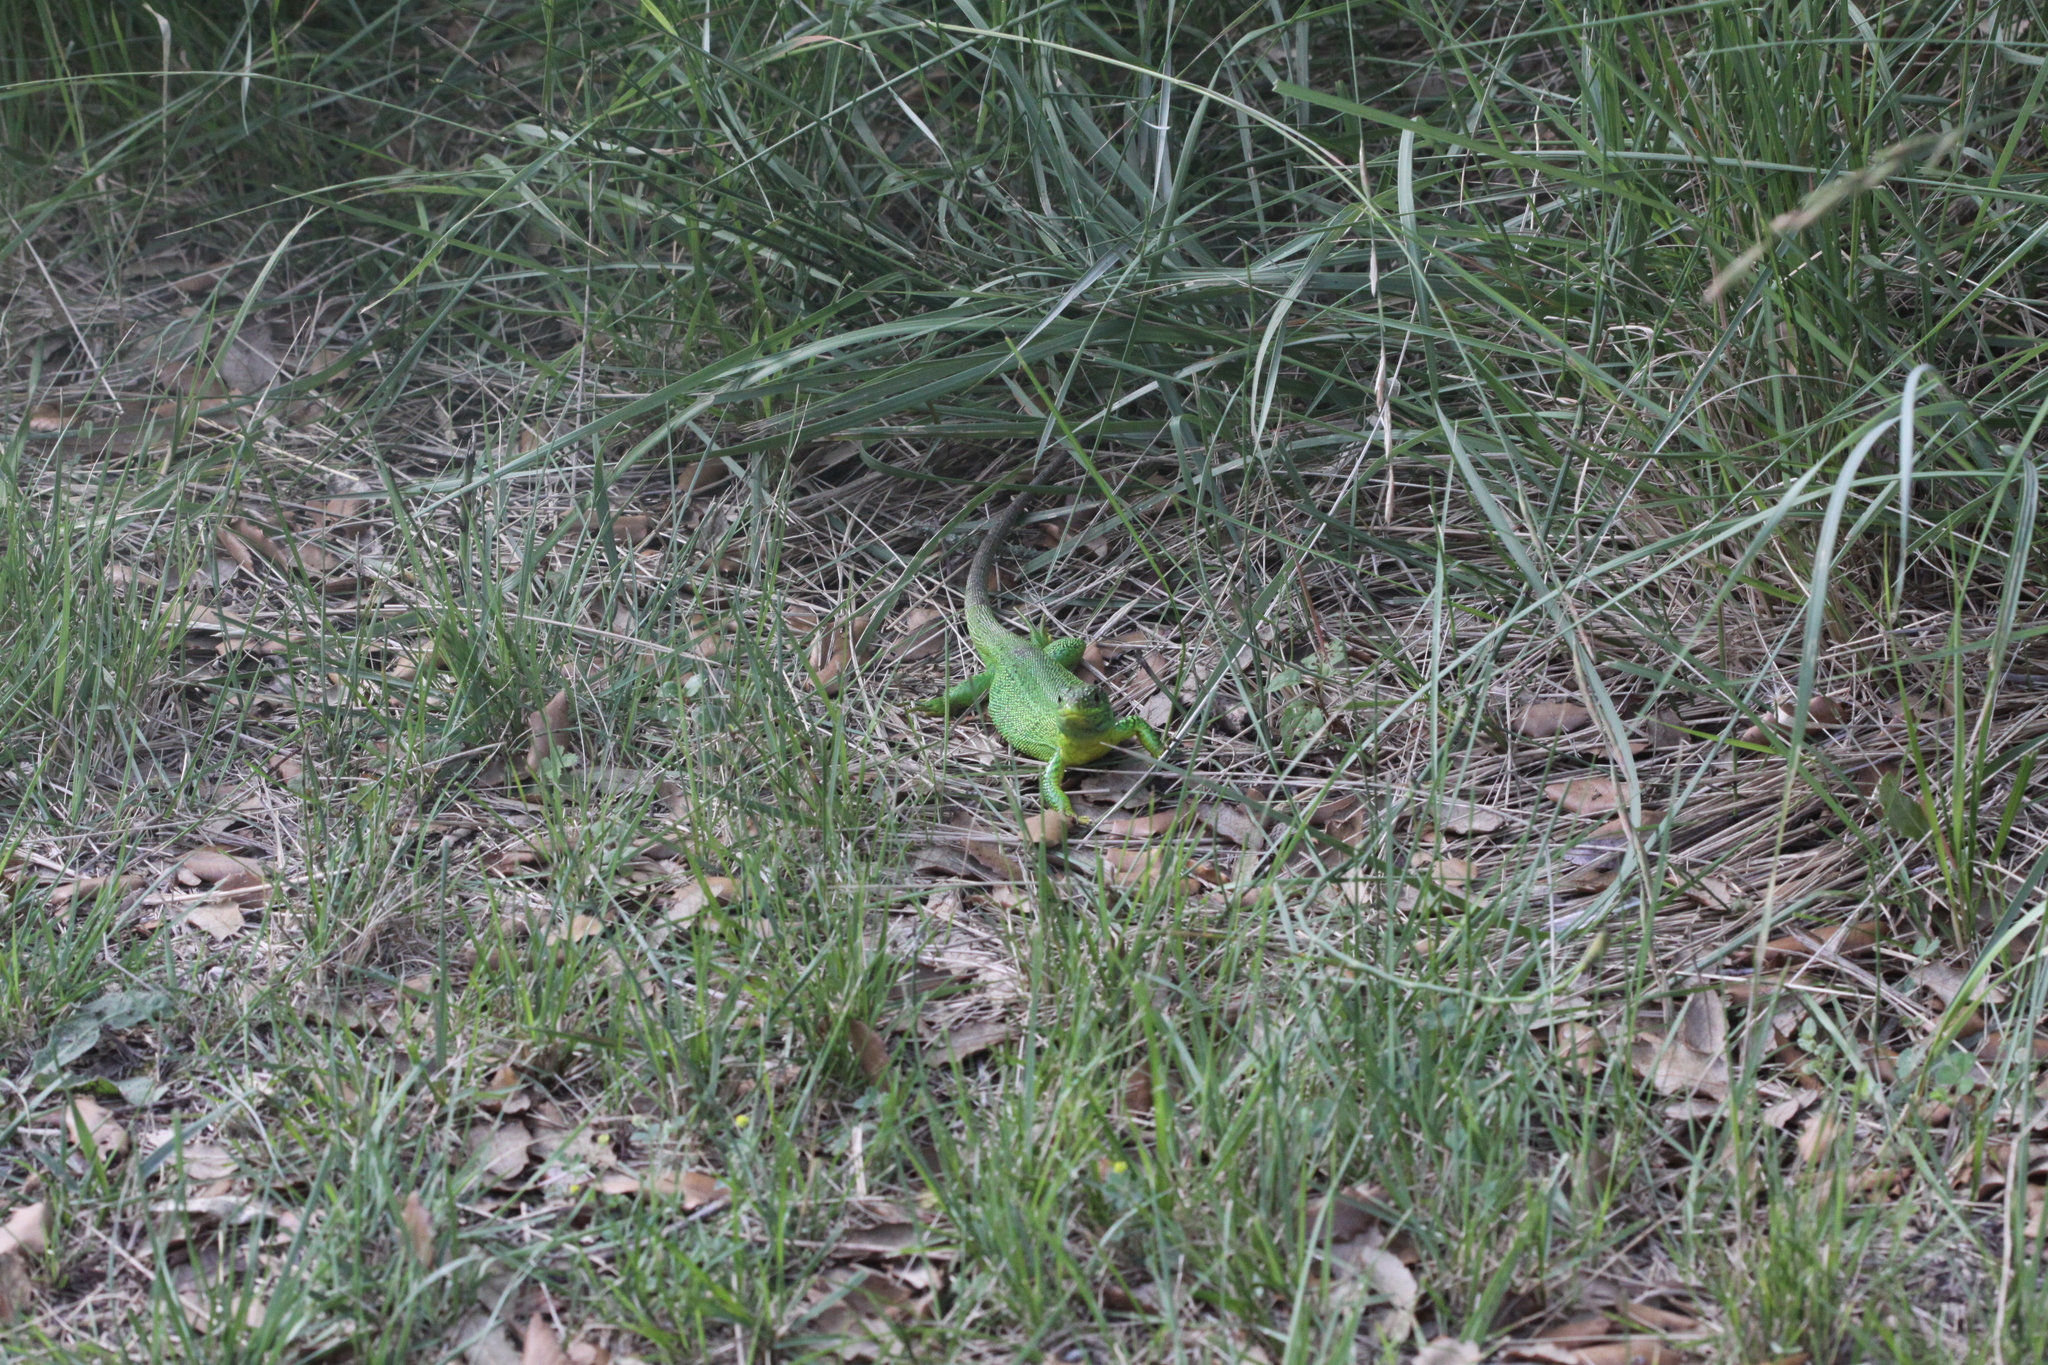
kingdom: Animalia
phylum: Chordata
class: Squamata
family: Lacertidae
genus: Lacerta
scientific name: Lacerta bilineata
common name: Western green lizard
